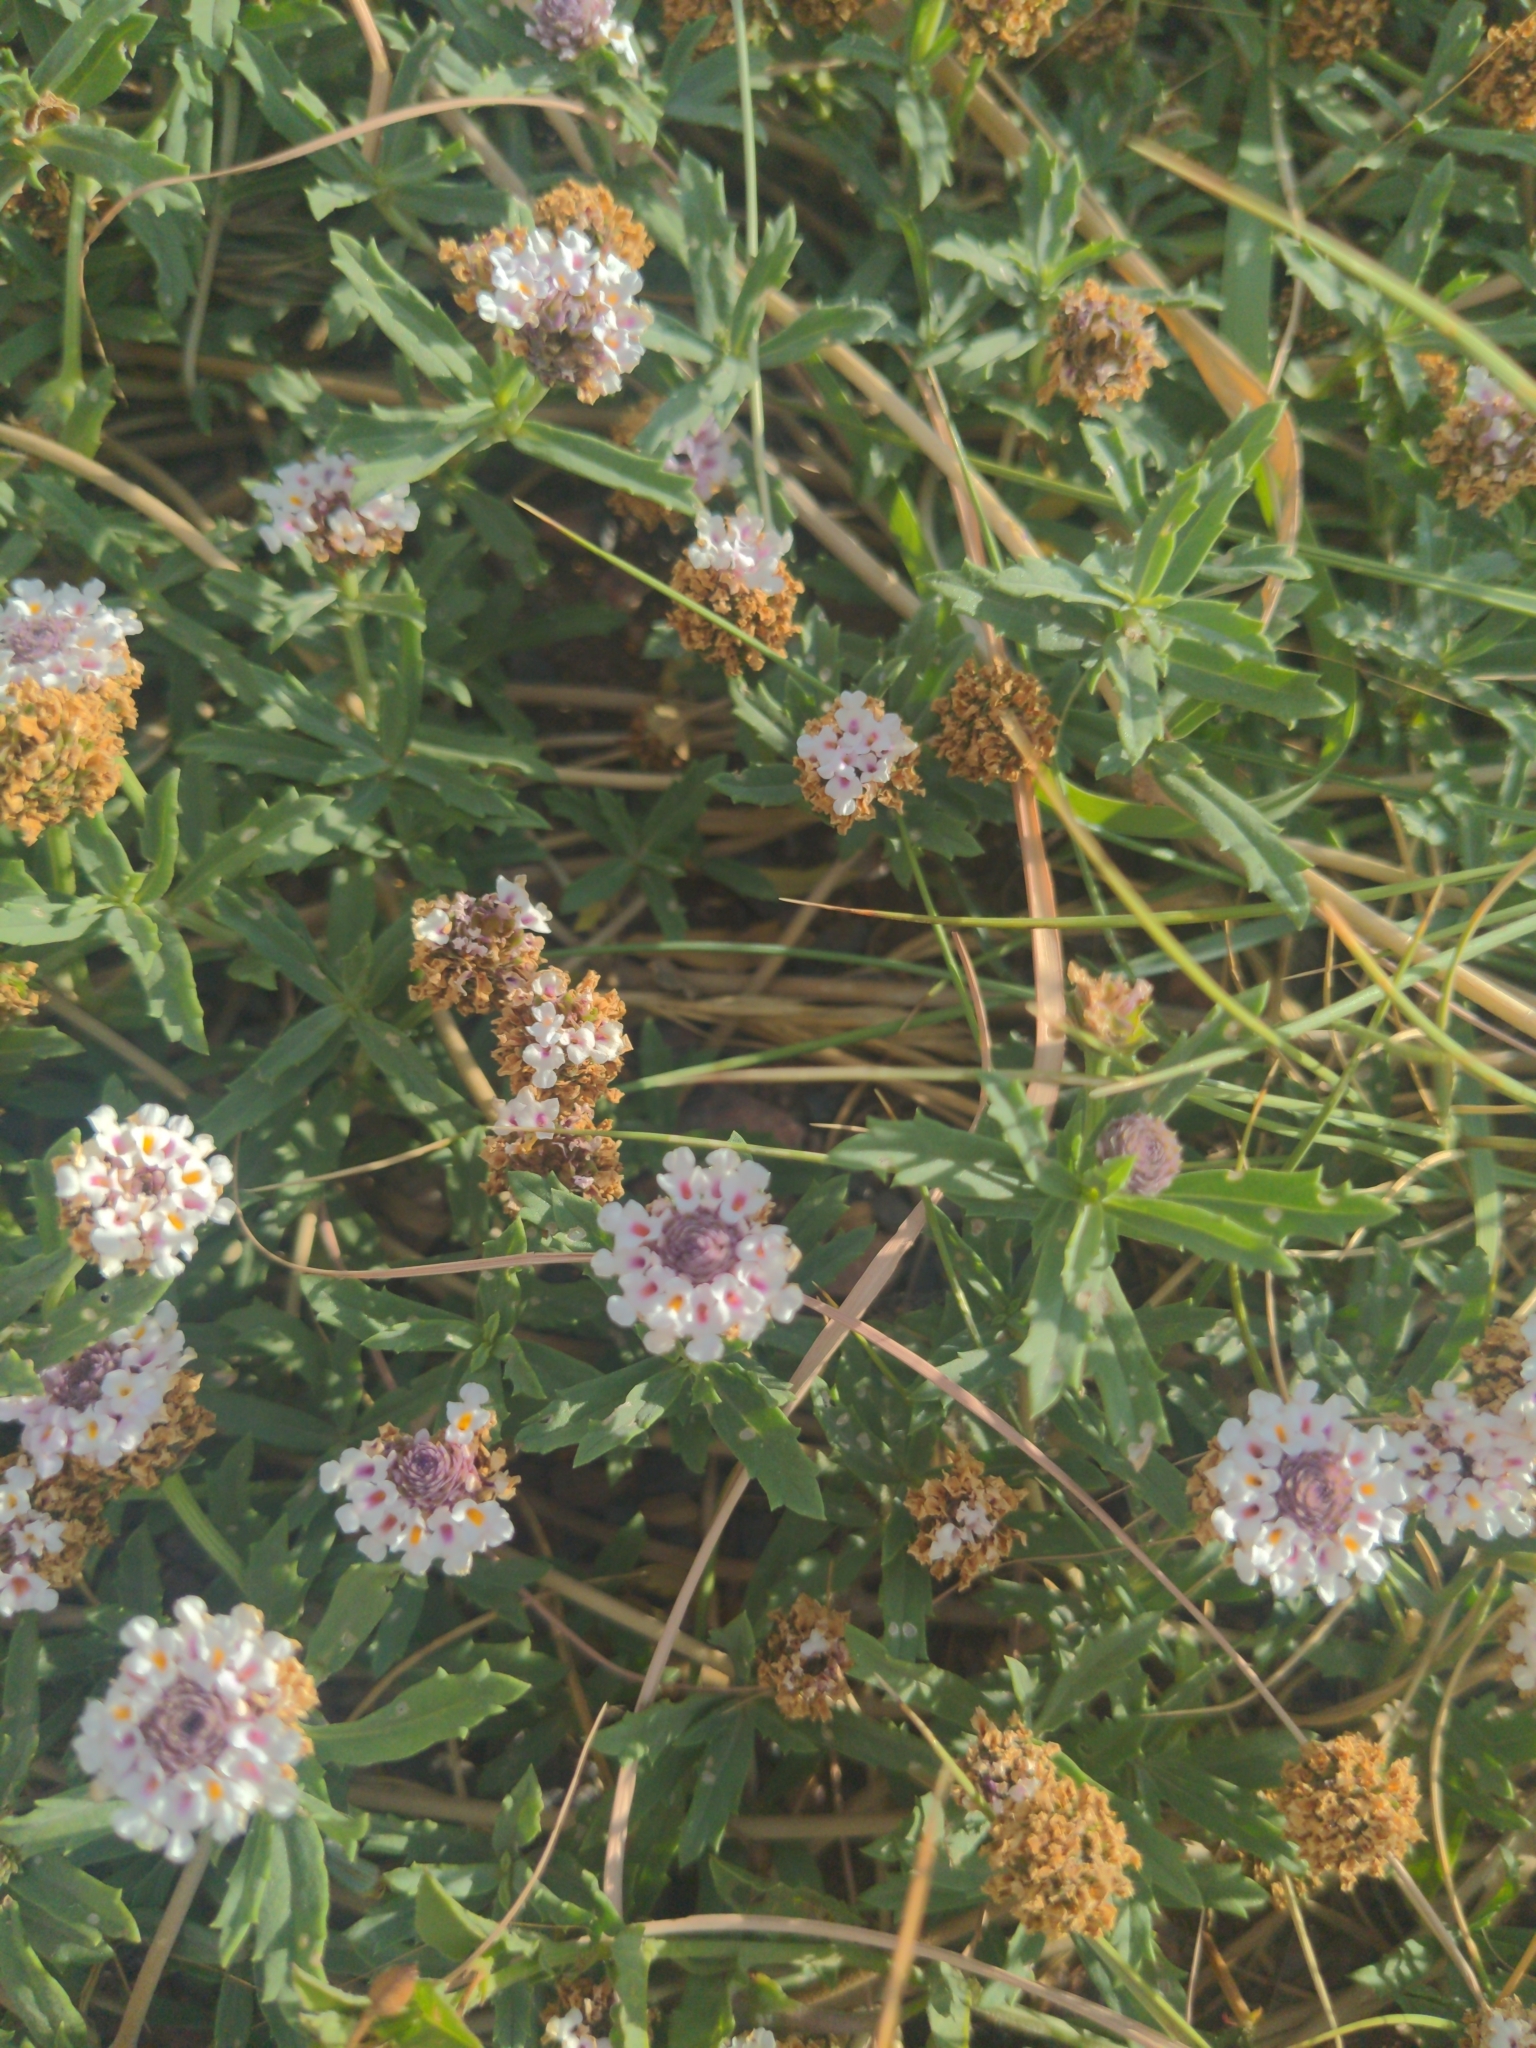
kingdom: Plantae
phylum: Tracheophyta
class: Magnoliopsida
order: Lamiales
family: Verbenaceae
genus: Phyla
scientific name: Phyla cuneifolia
